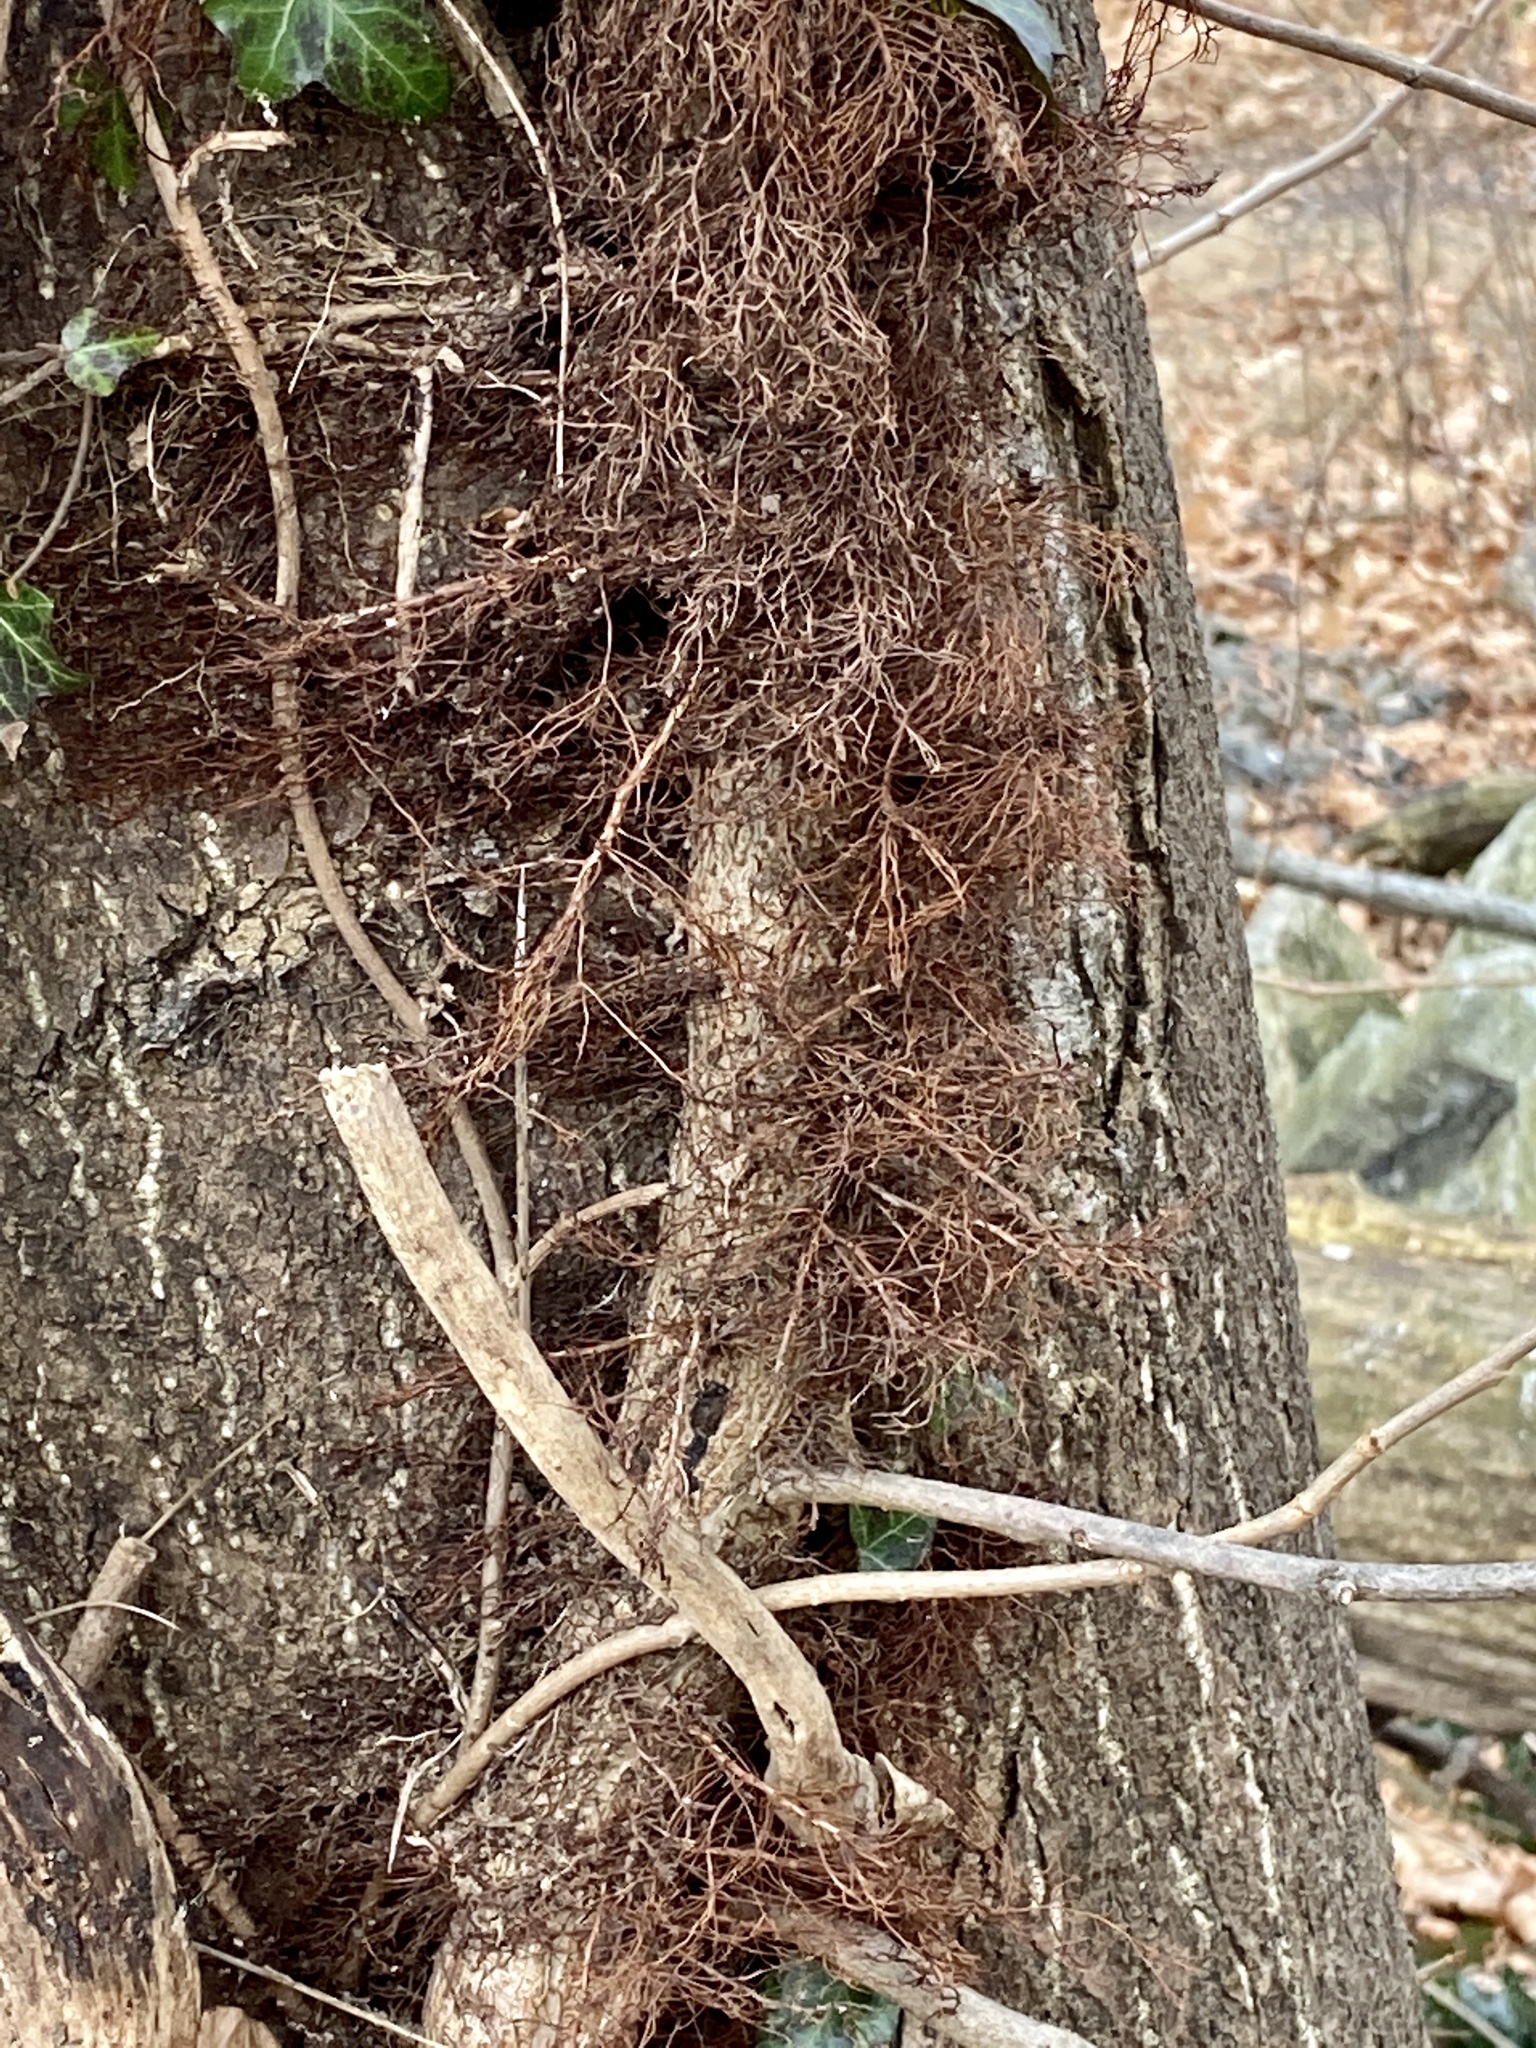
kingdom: Plantae
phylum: Tracheophyta
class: Magnoliopsida
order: Sapindales
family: Anacardiaceae
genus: Toxicodendron
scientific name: Toxicodendron radicans
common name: Poison ivy
